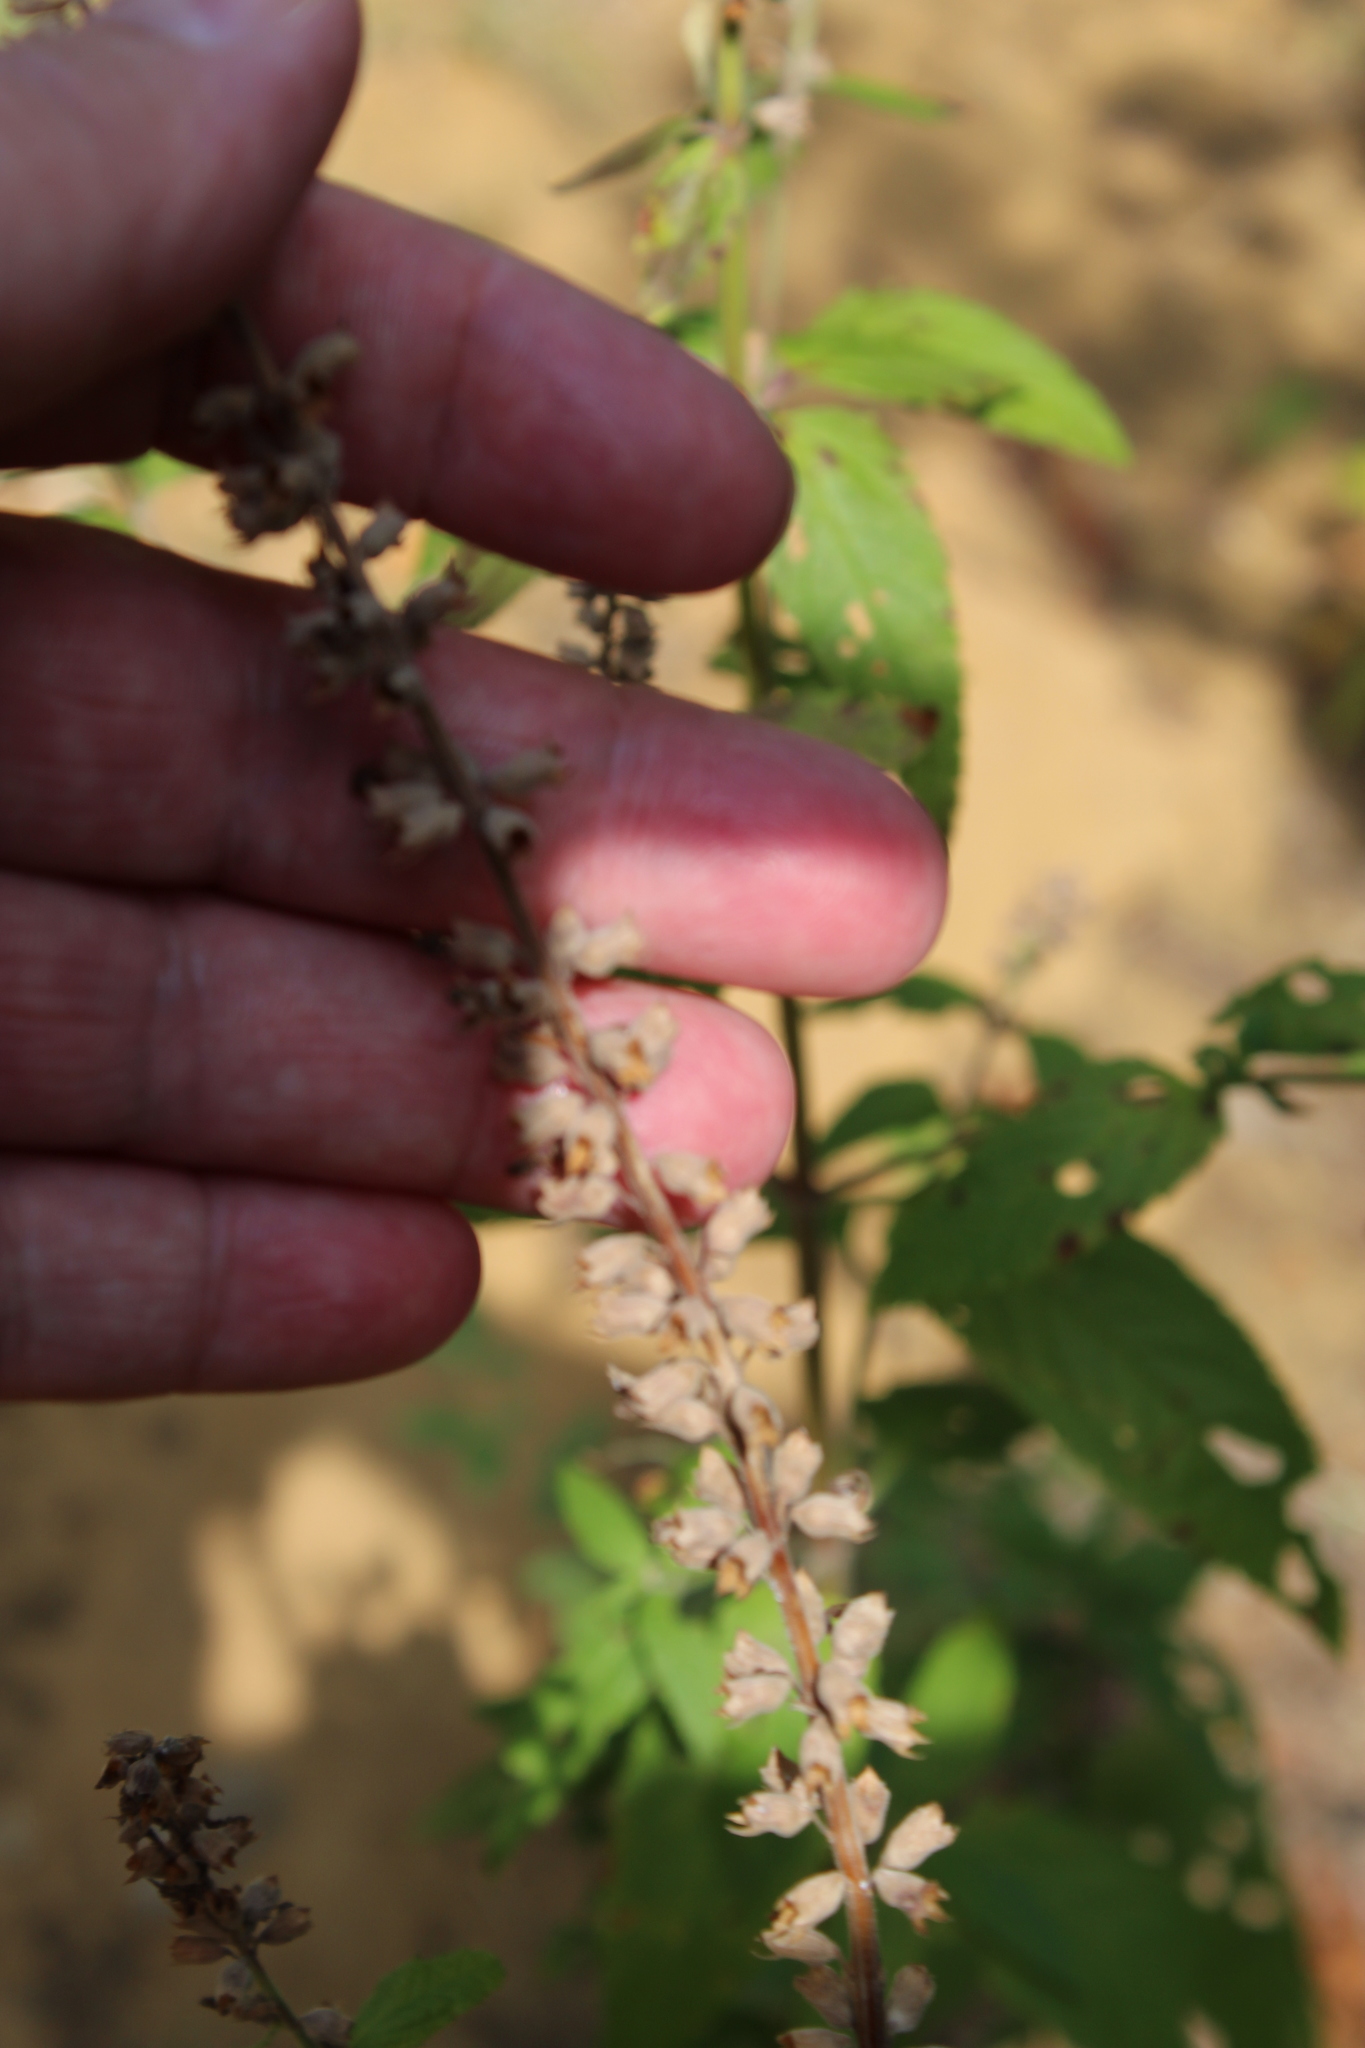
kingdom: Plantae
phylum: Tracheophyta
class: Magnoliopsida
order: Lamiales
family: Lamiaceae
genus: Teucrium
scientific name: Teucrium canadense
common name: American germander
